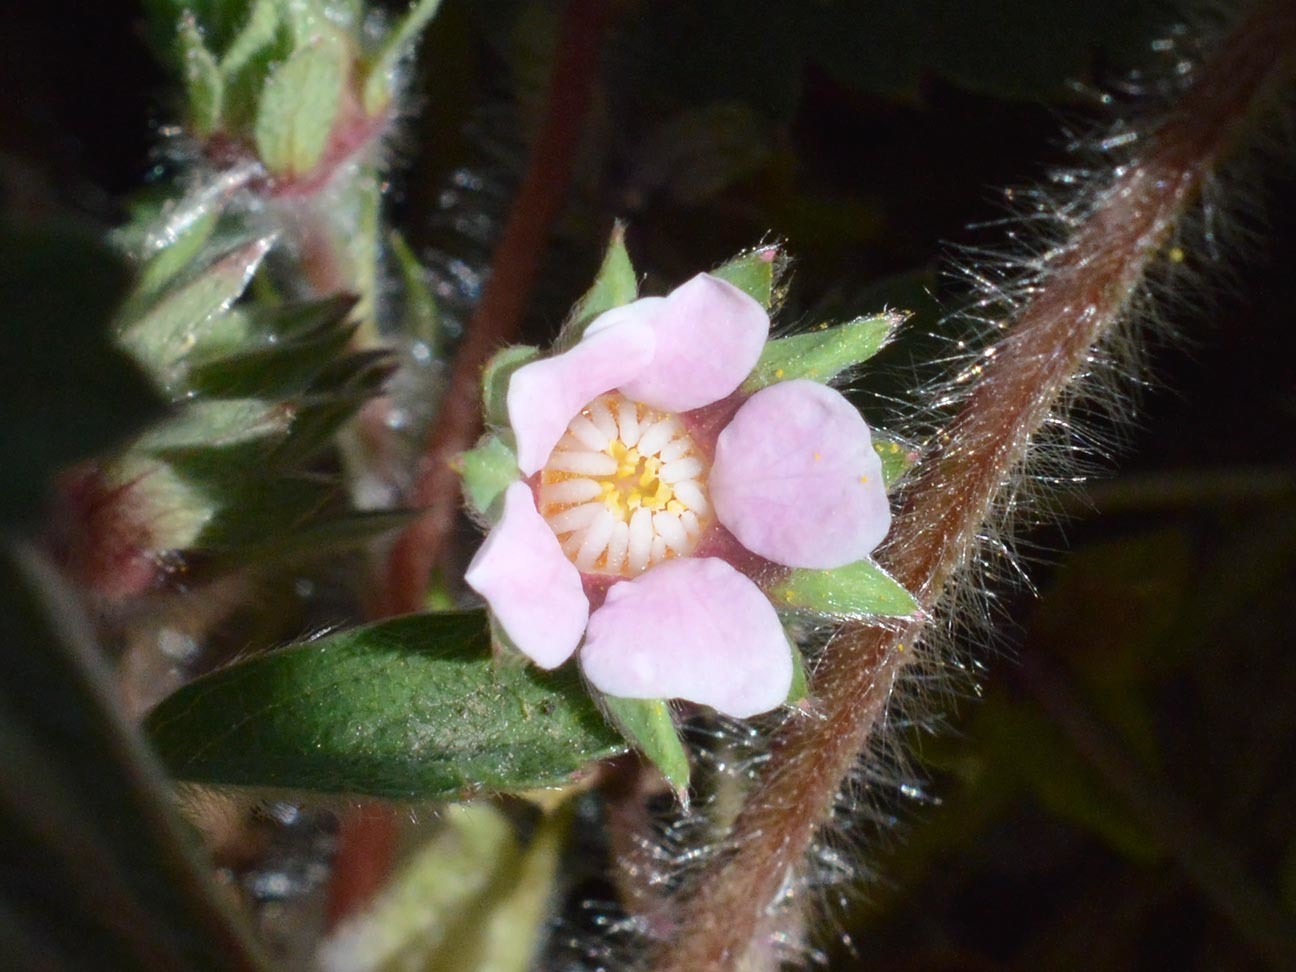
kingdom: Plantae
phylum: Tracheophyta
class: Magnoliopsida
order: Rosales
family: Rosaceae
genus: Potentilla
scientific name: Potentilla micrantha
